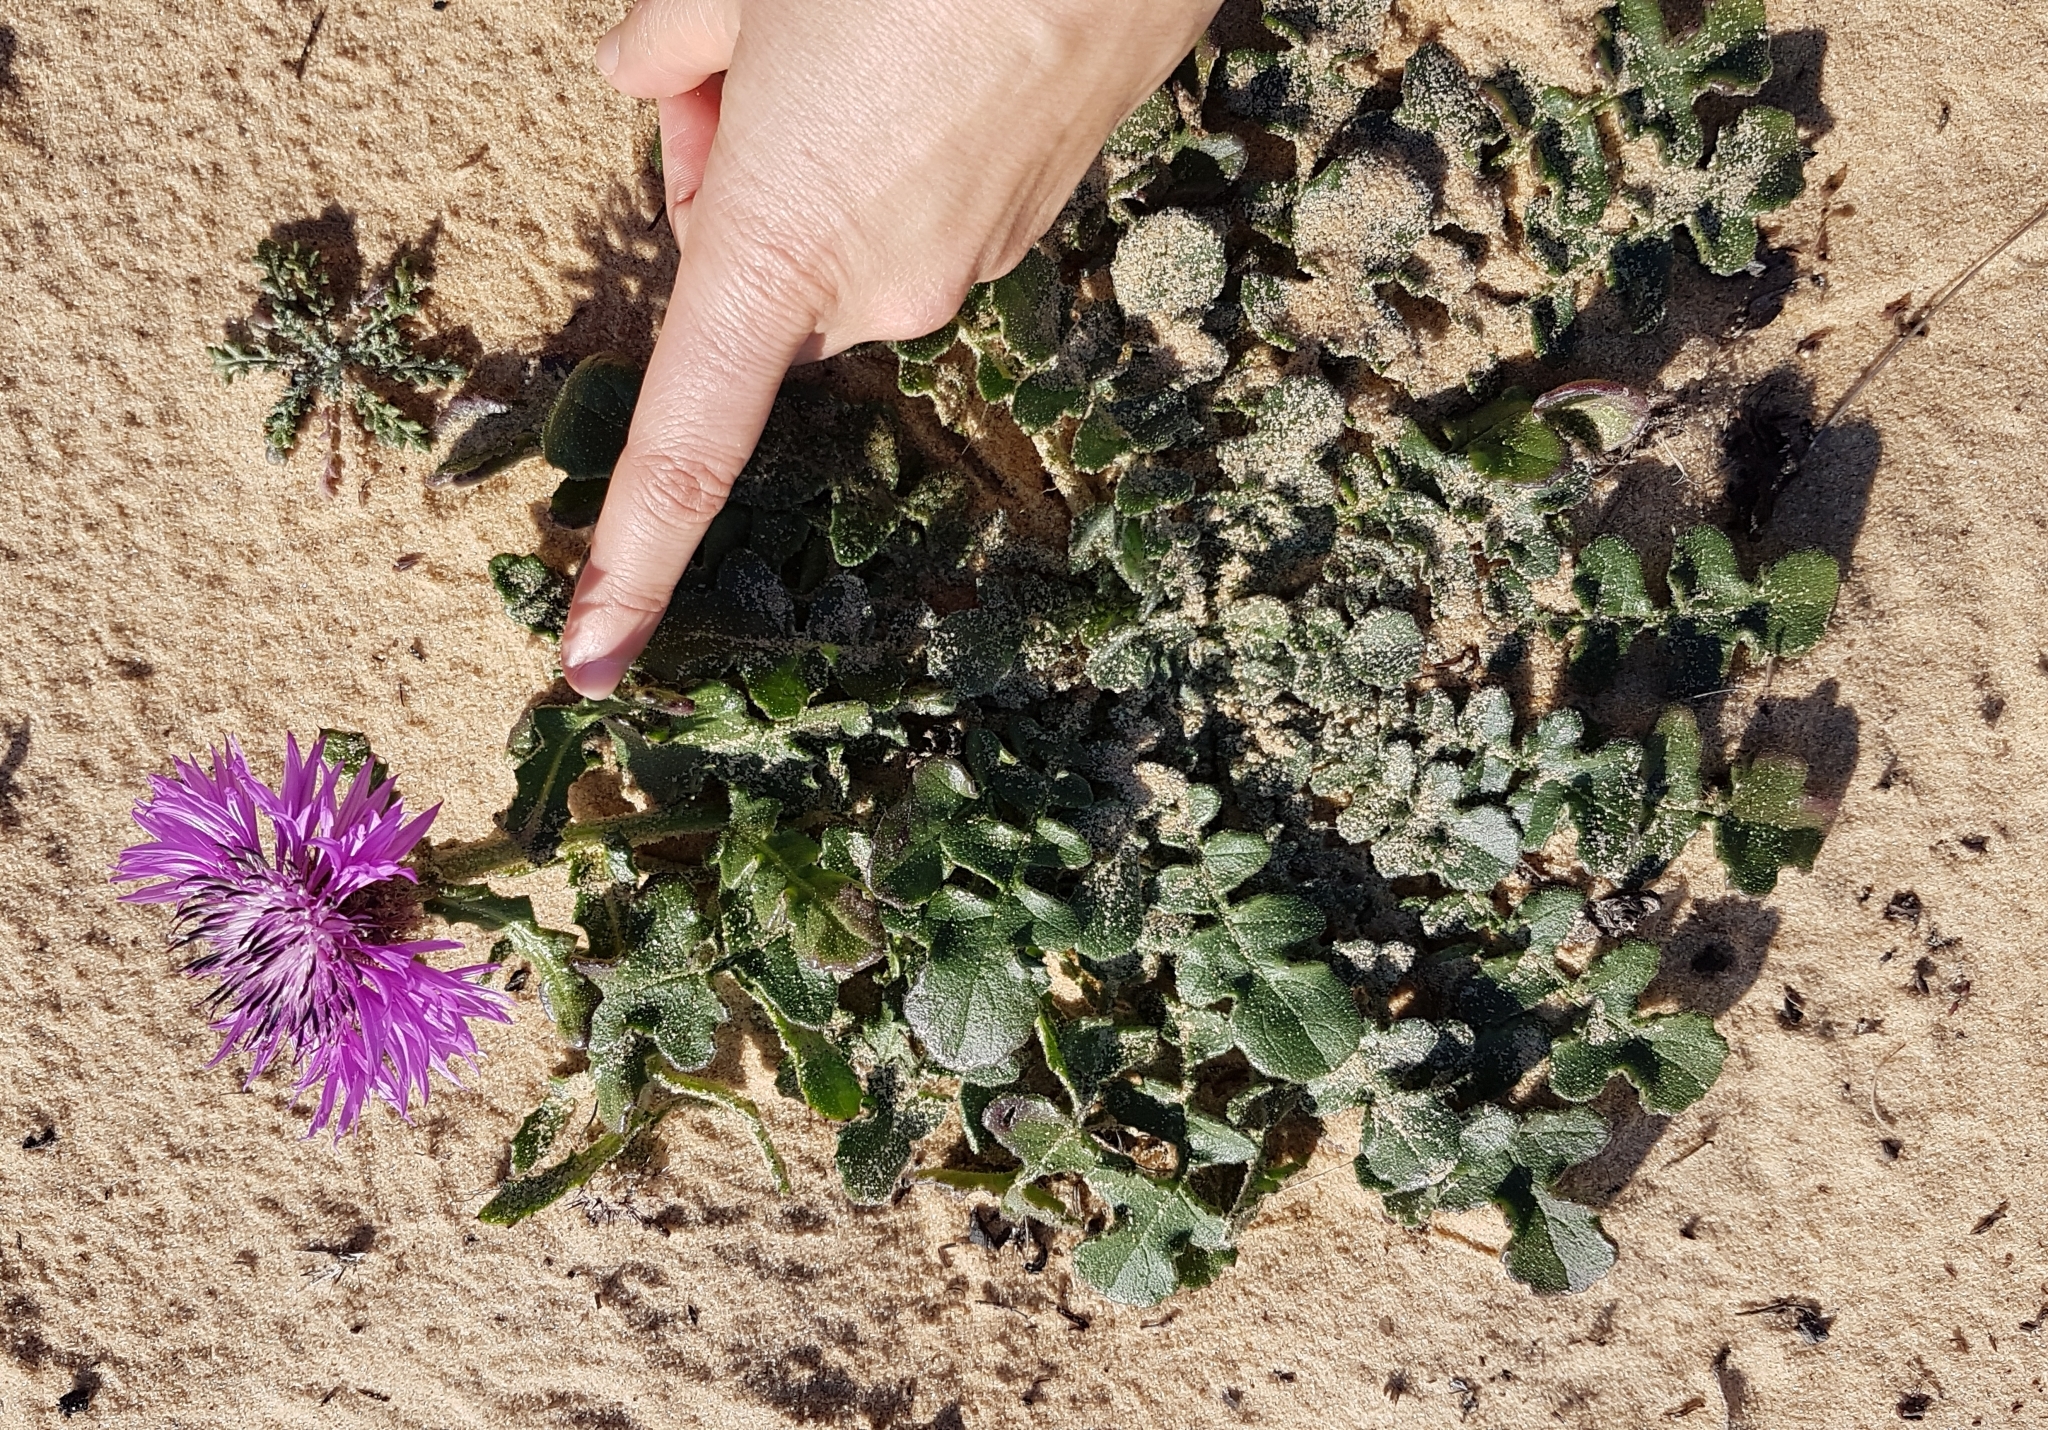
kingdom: Plantae
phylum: Tracheophyta
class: Magnoliopsida
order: Asterales
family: Asteraceae
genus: Centaurea
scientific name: Centaurea polyacantha
